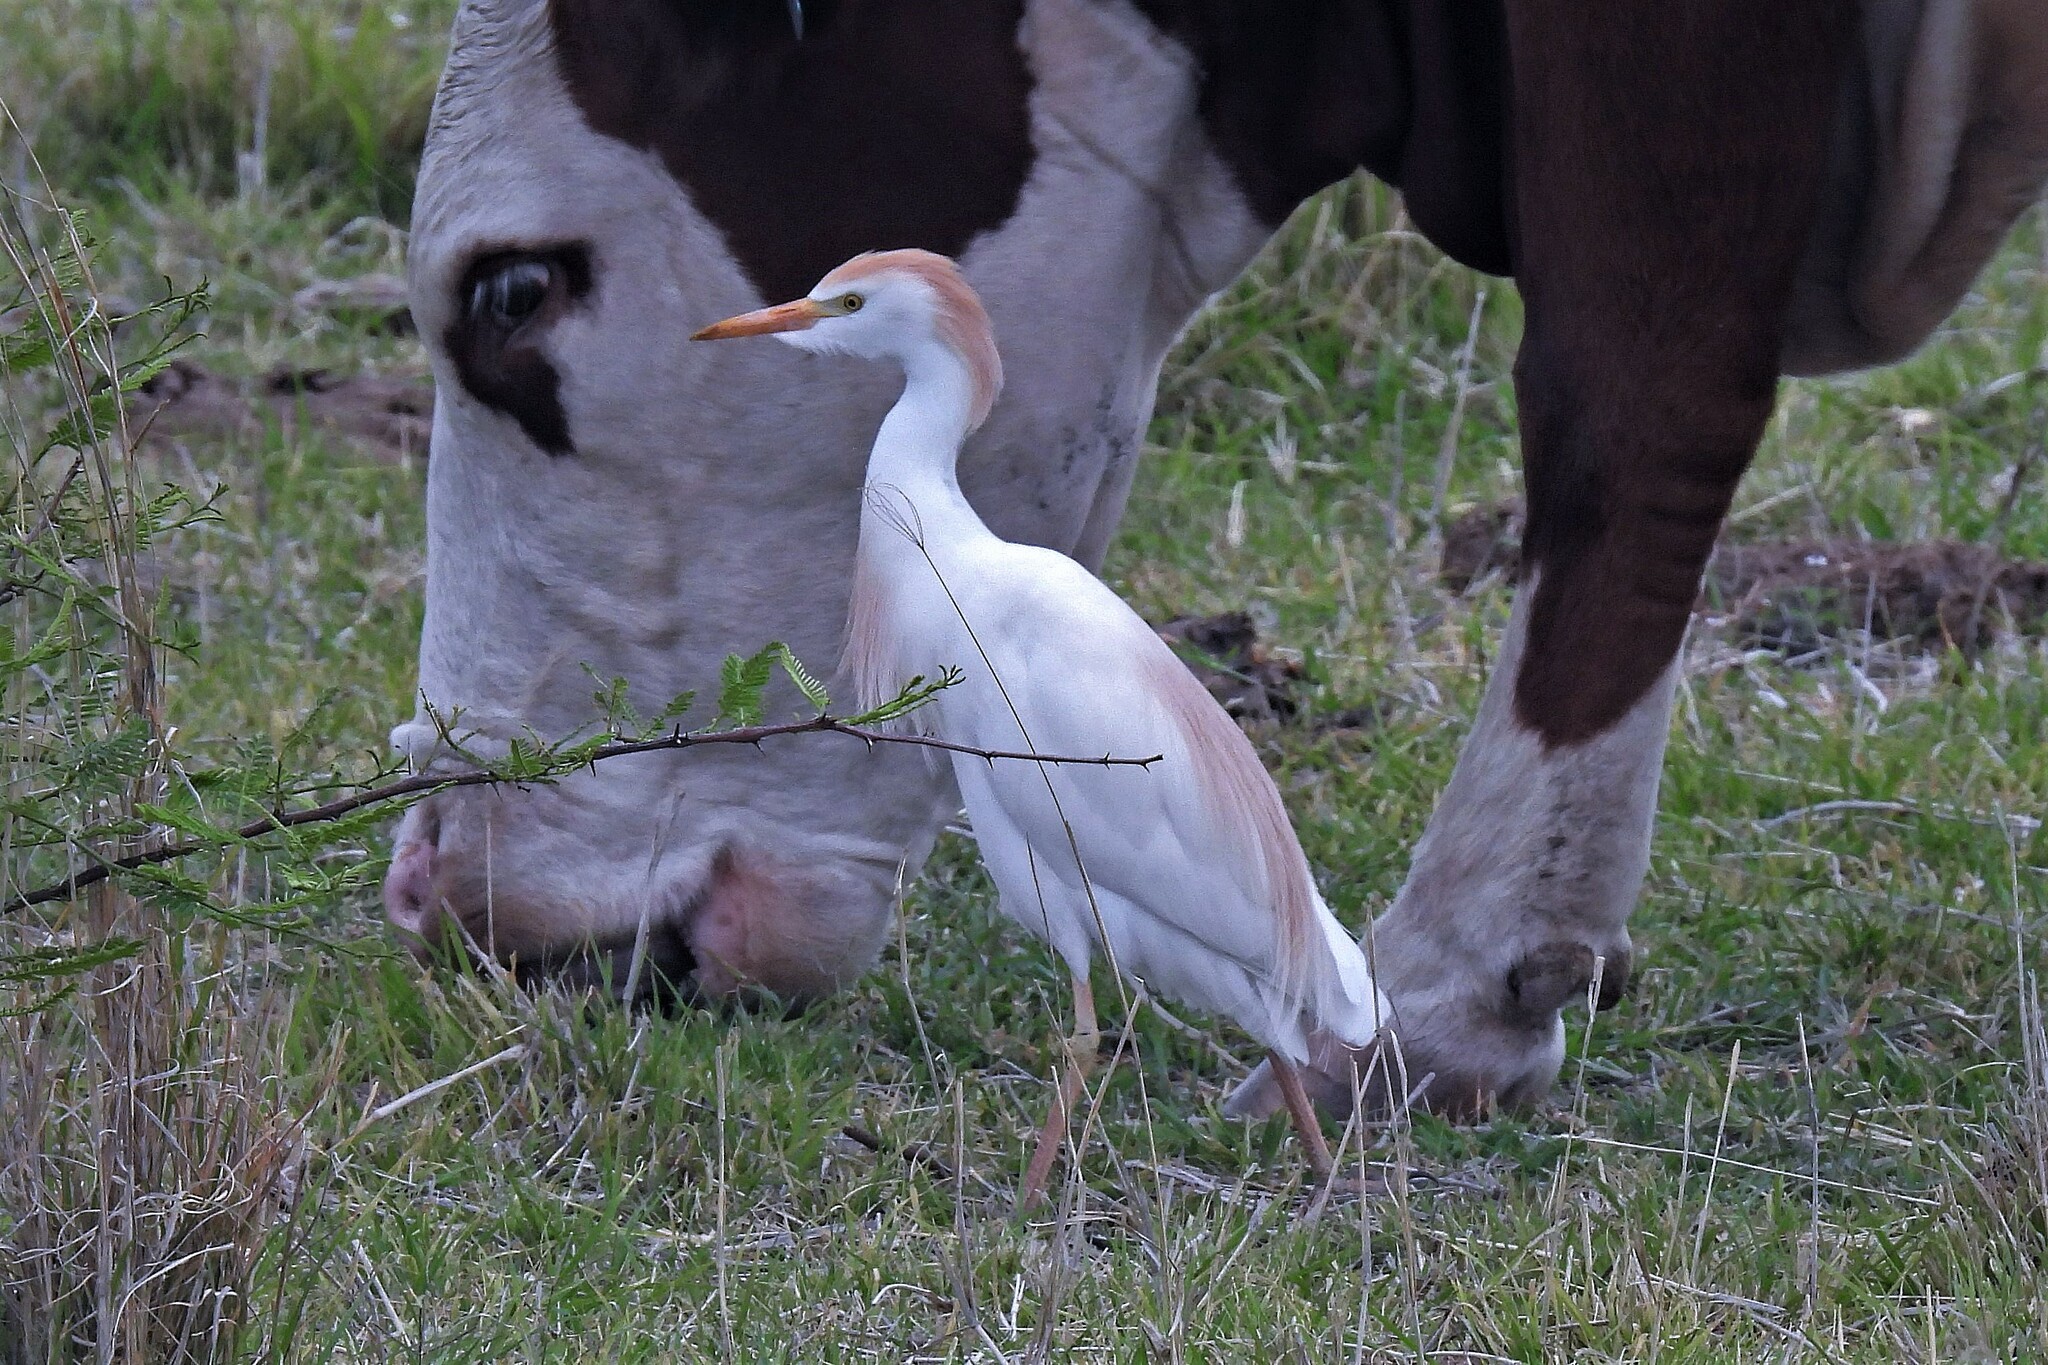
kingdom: Animalia
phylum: Chordata
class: Aves
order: Pelecaniformes
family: Ardeidae
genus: Bubulcus
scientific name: Bubulcus ibis
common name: Cattle egret
